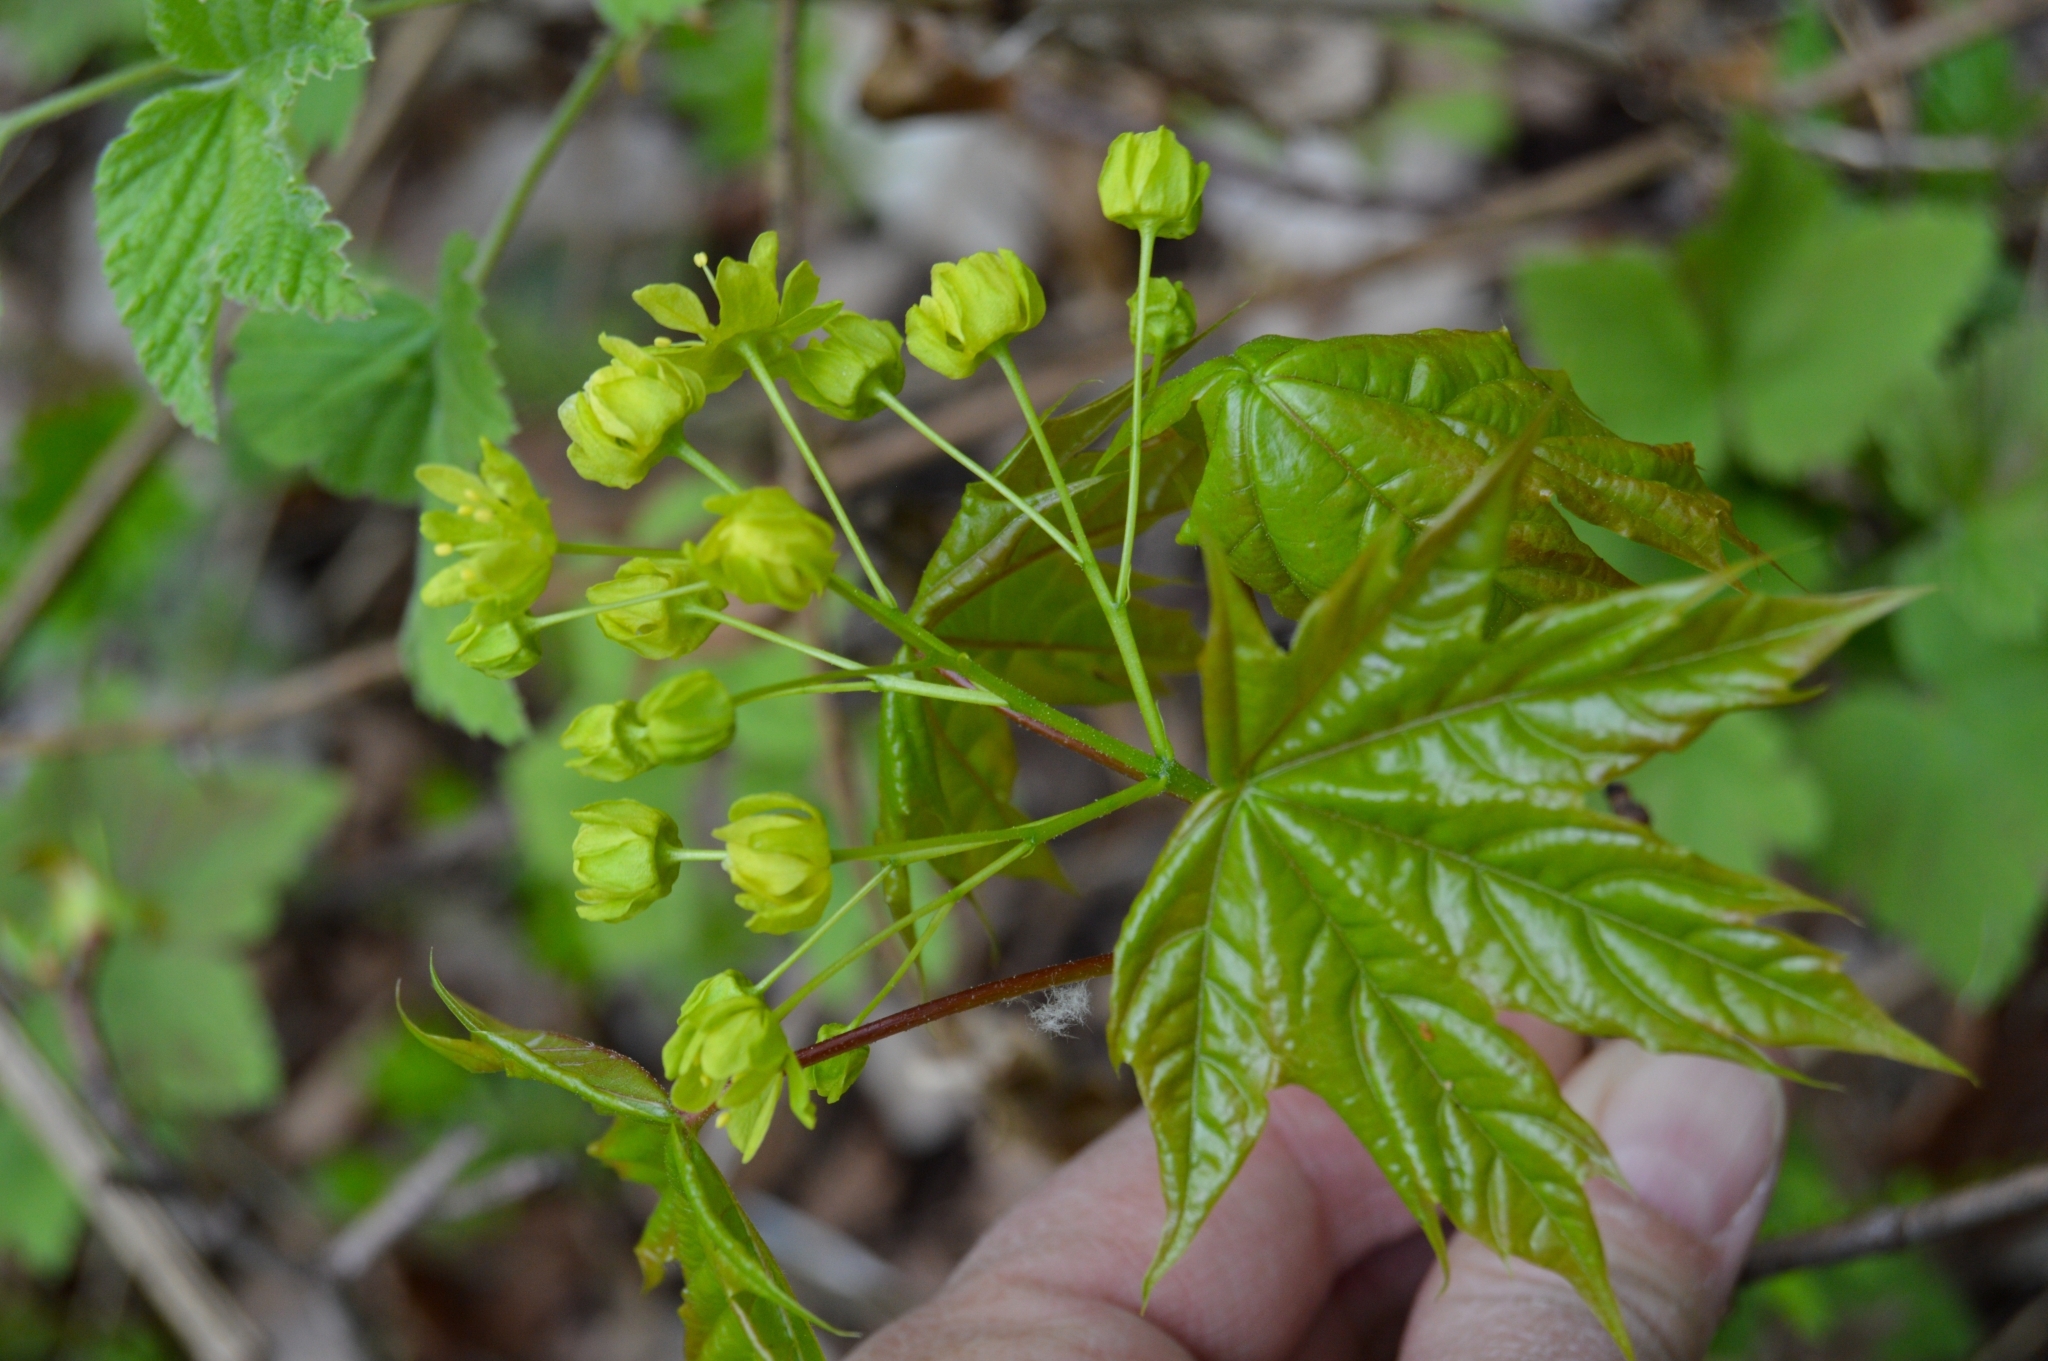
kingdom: Plantae
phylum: Tracheophyta
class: Magnoliopsida
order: Sapindales
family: Sapindaceae
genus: Acer
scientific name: Acer platanoides
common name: Norway maple
